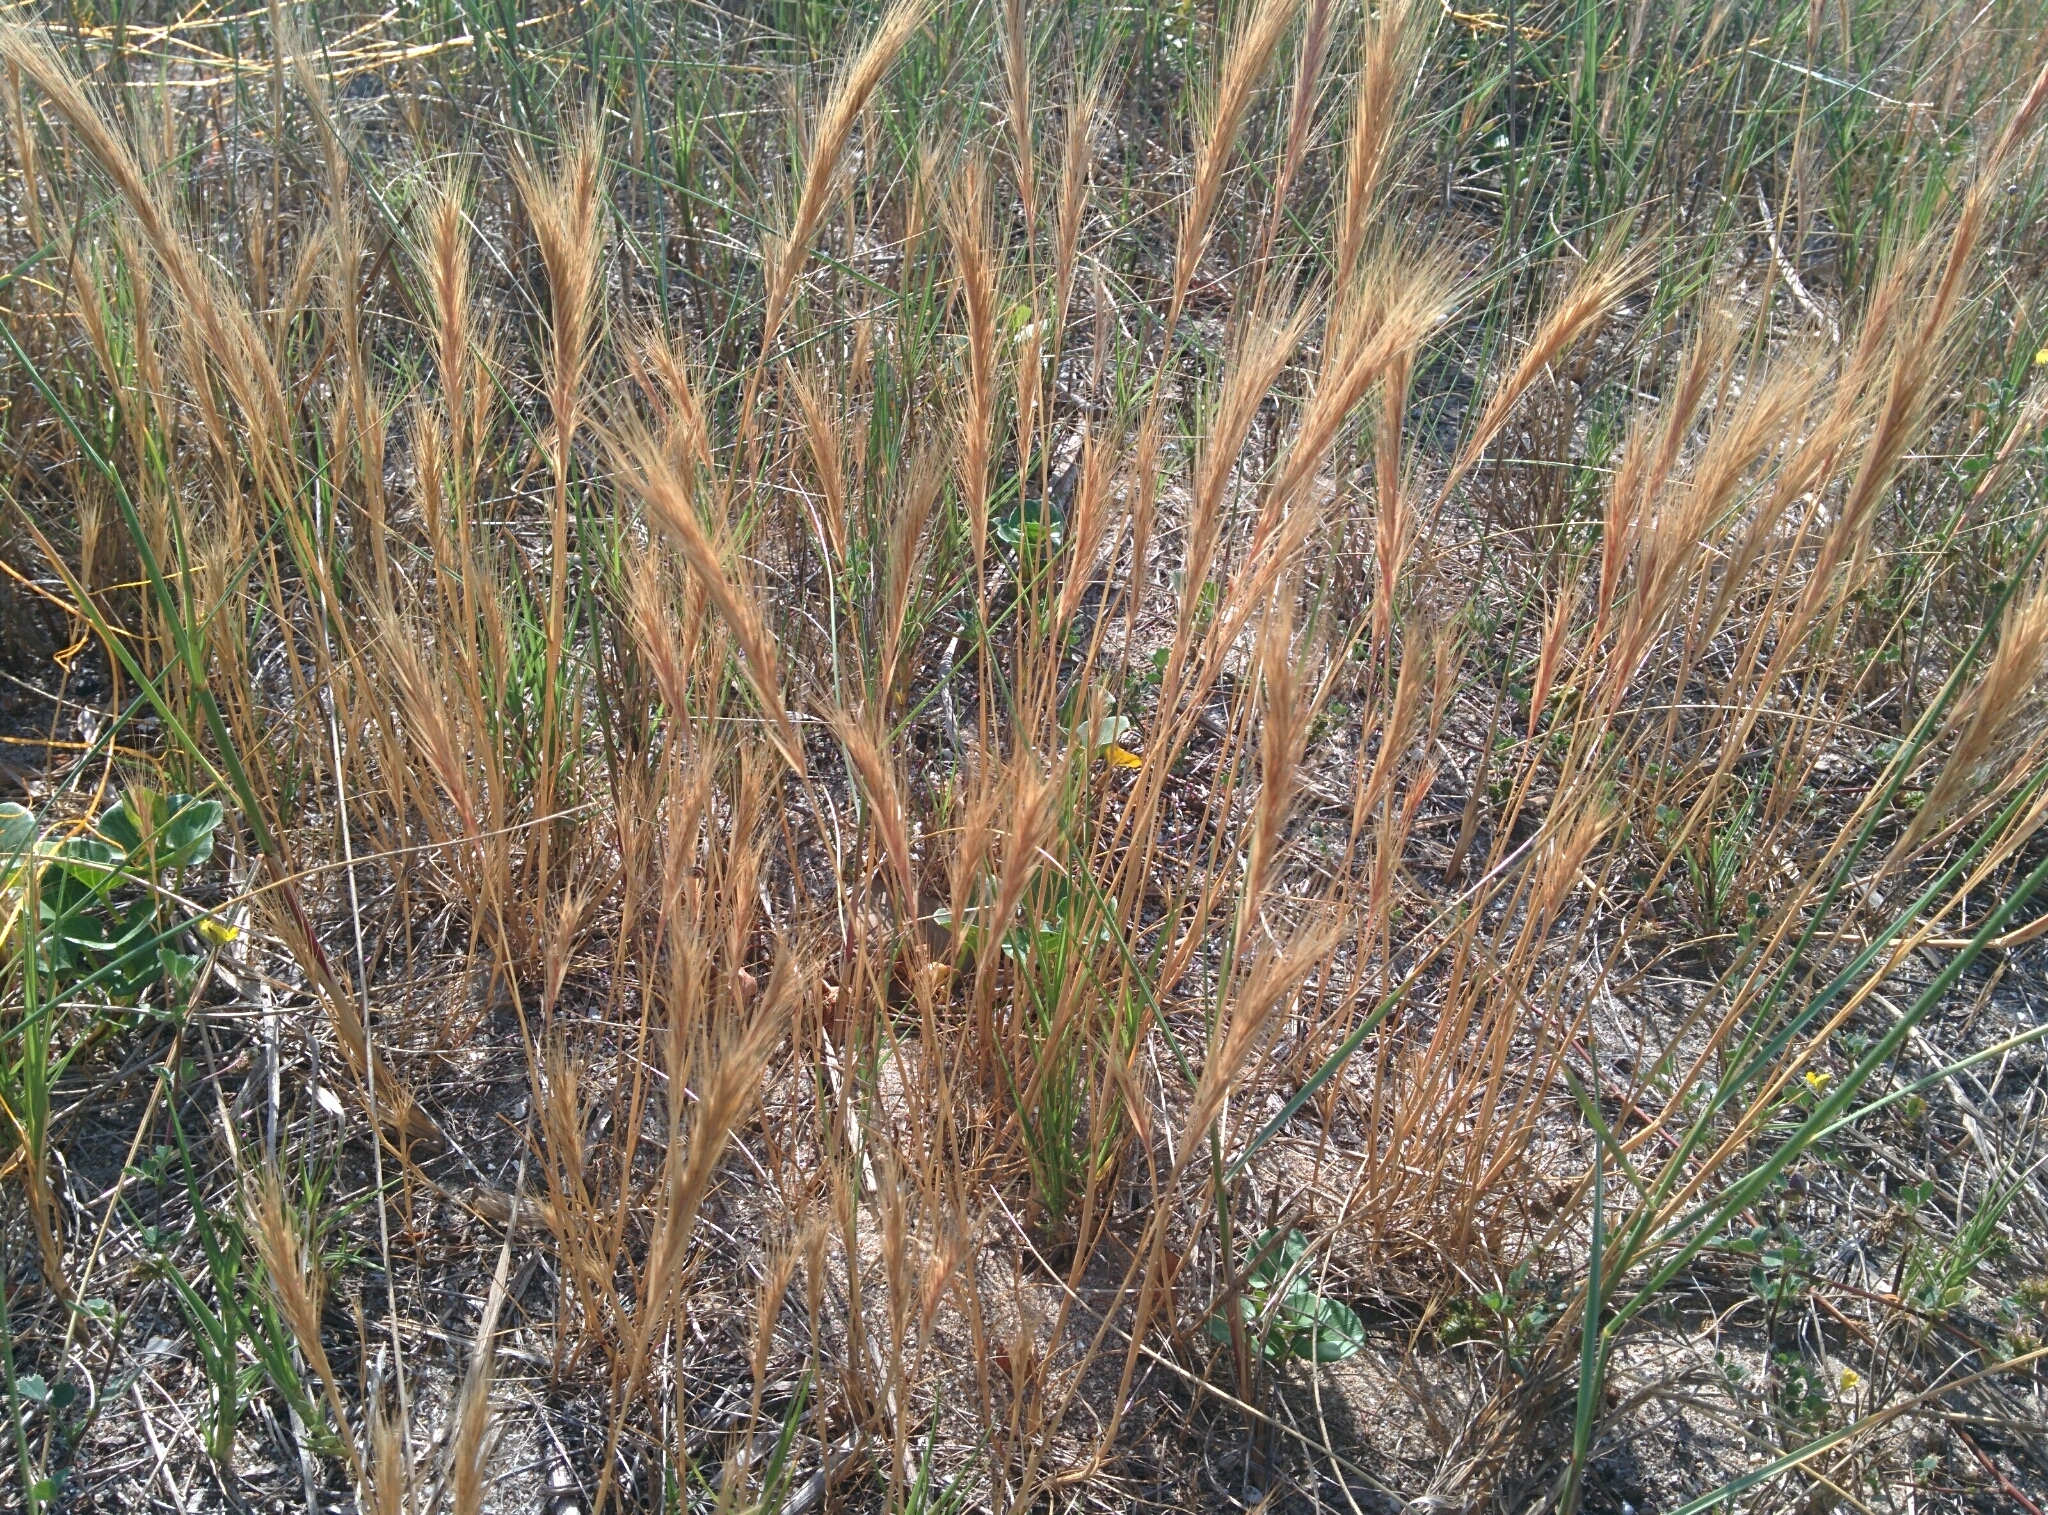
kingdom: Plantae
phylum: Tracheophyta
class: Liliopsida
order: Poales
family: Poaceae
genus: Festuca
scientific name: Festuca fasciculata
